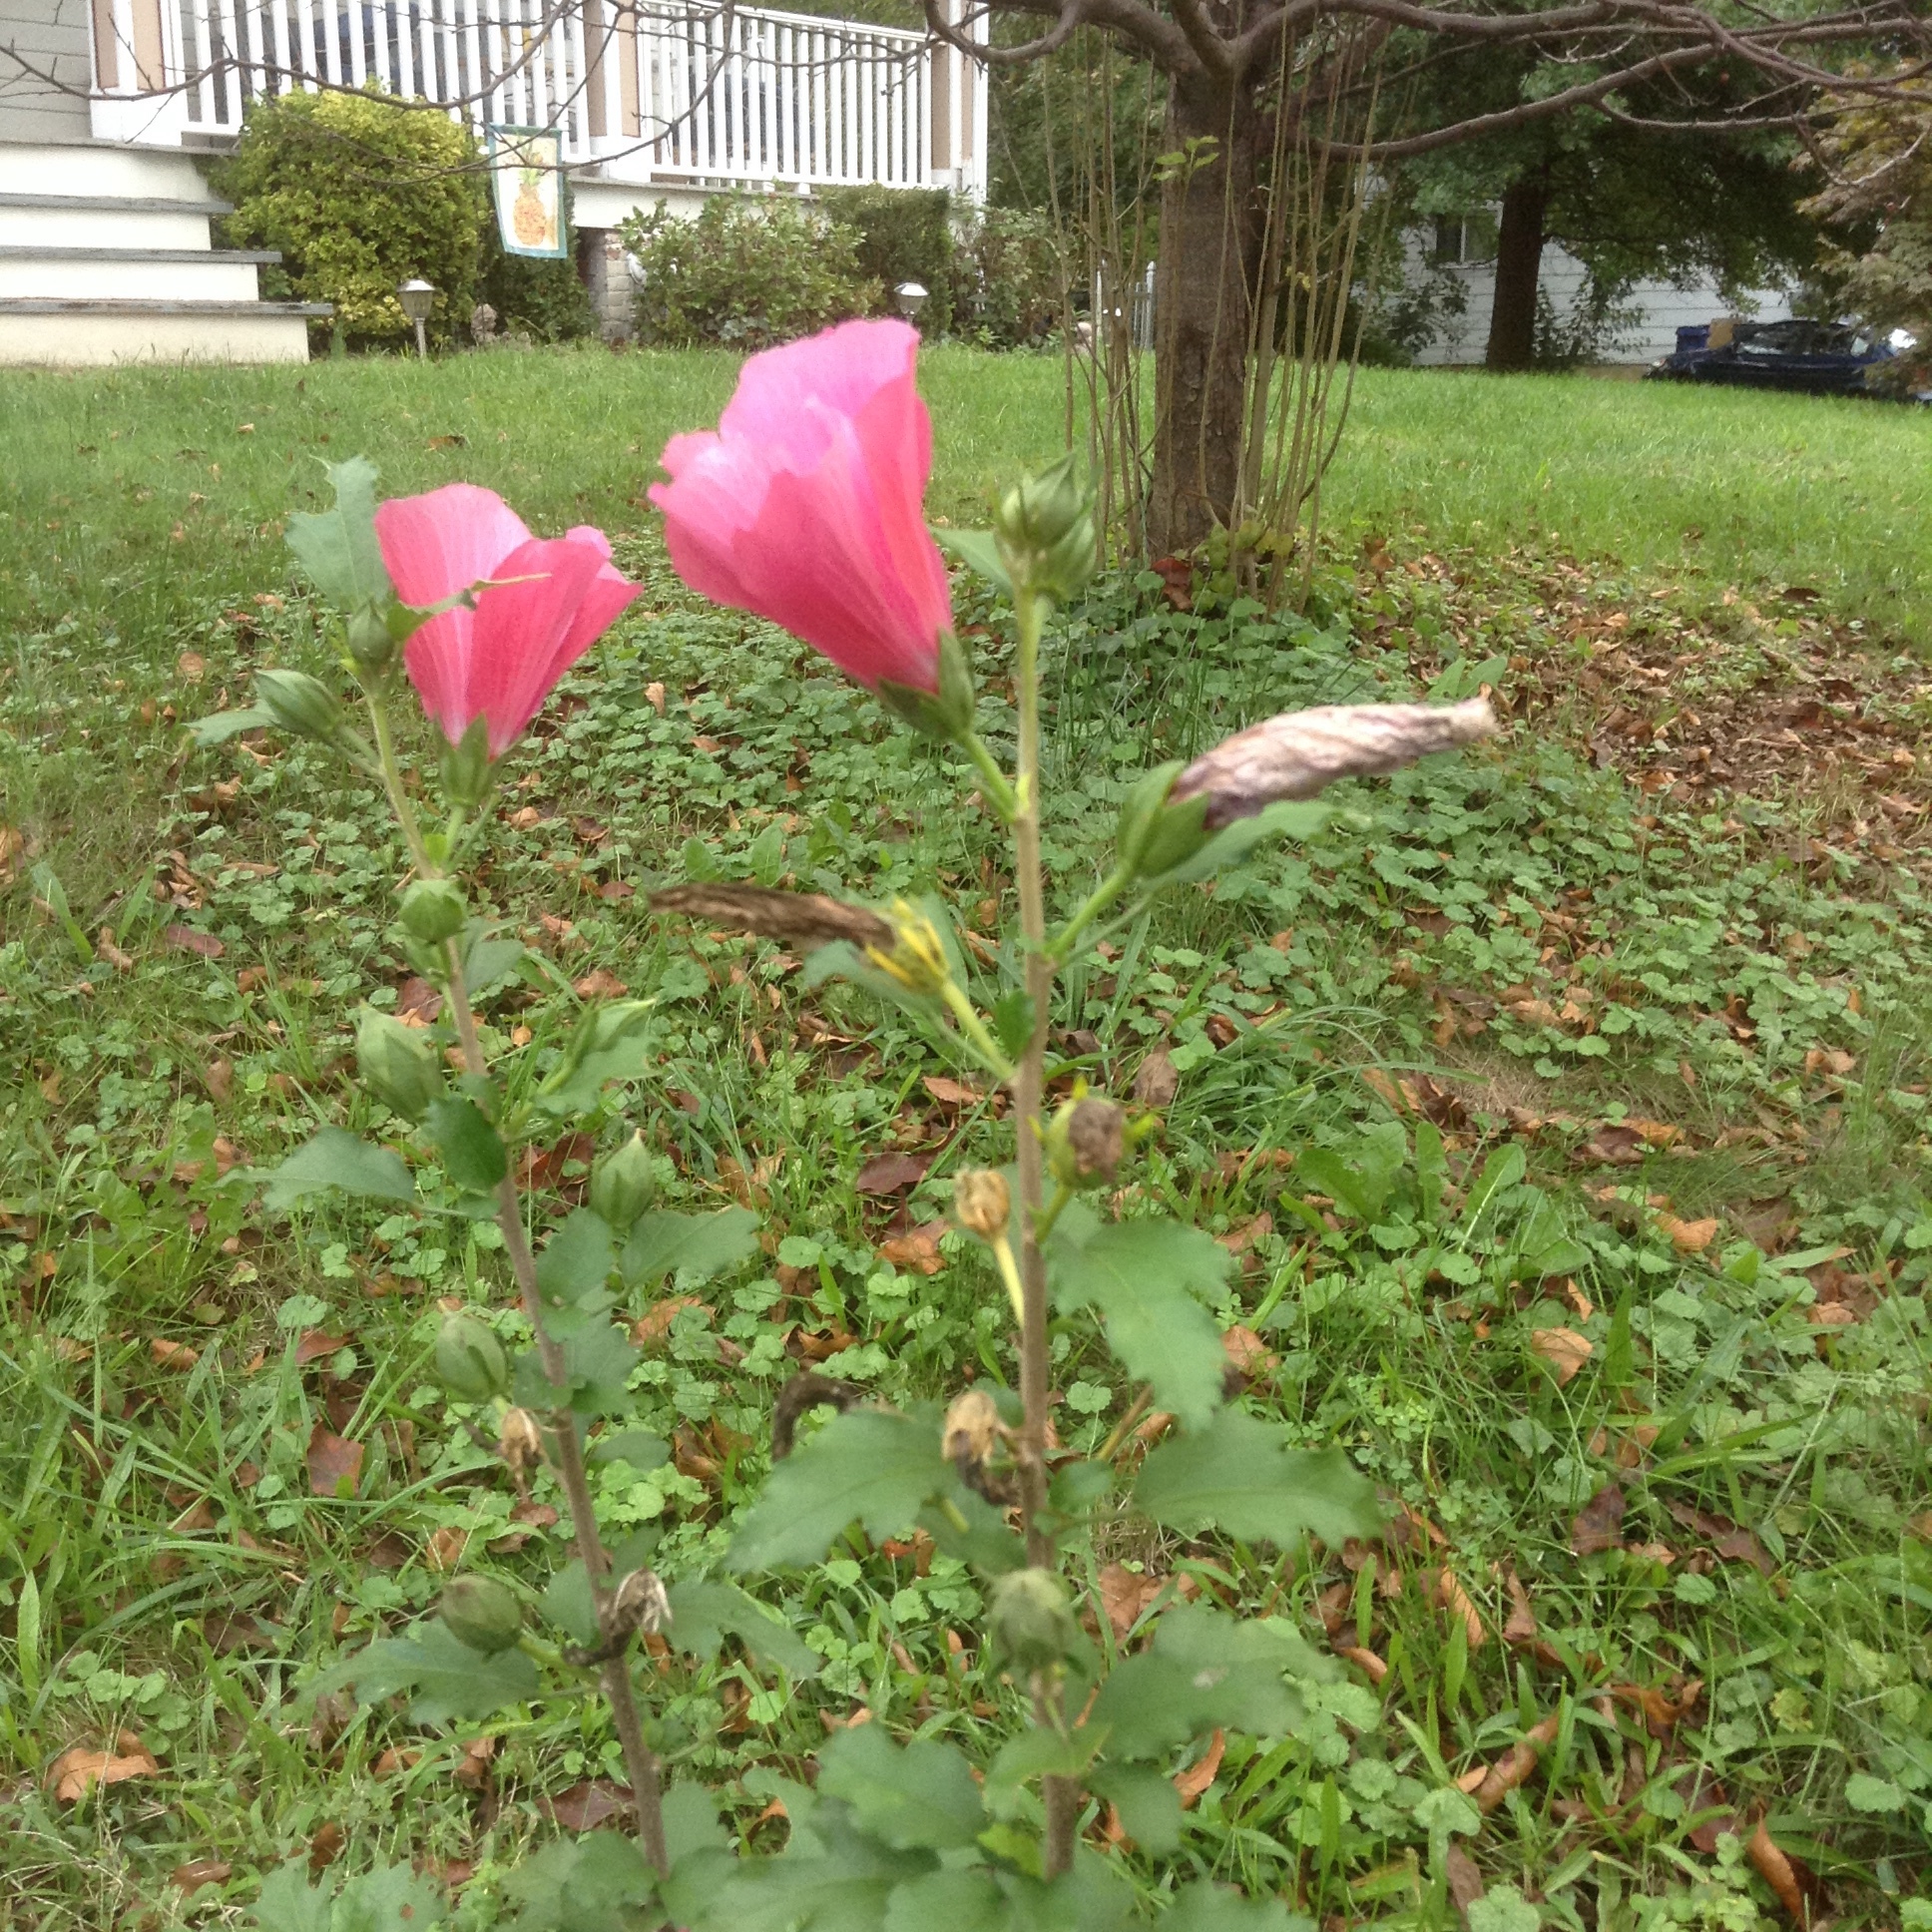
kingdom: Plantae
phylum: Tracheophyta
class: Magnoliopsida
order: Malvales
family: Malvaceae
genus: Hibiscus
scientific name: Hibiscus syriacus
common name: Syrian ketmia
